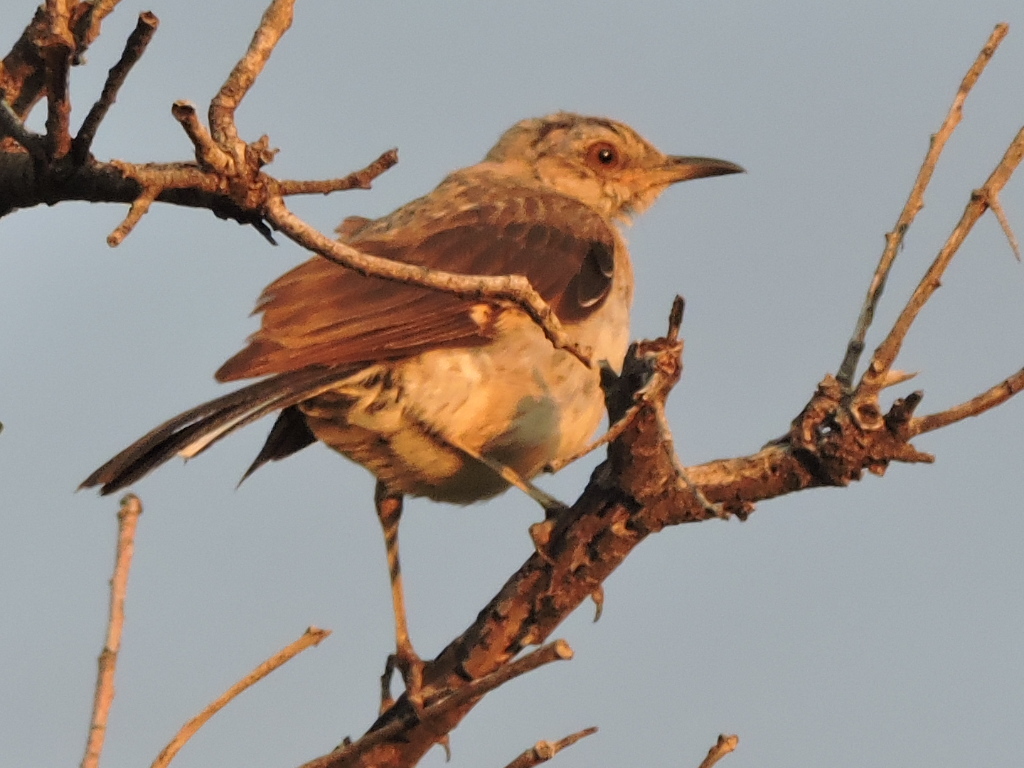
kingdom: Animalia
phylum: Chordata
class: Aves
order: Passeriformes
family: Mimidae
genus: Mimus
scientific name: Mimus polyglottos
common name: Northern mockingbird
